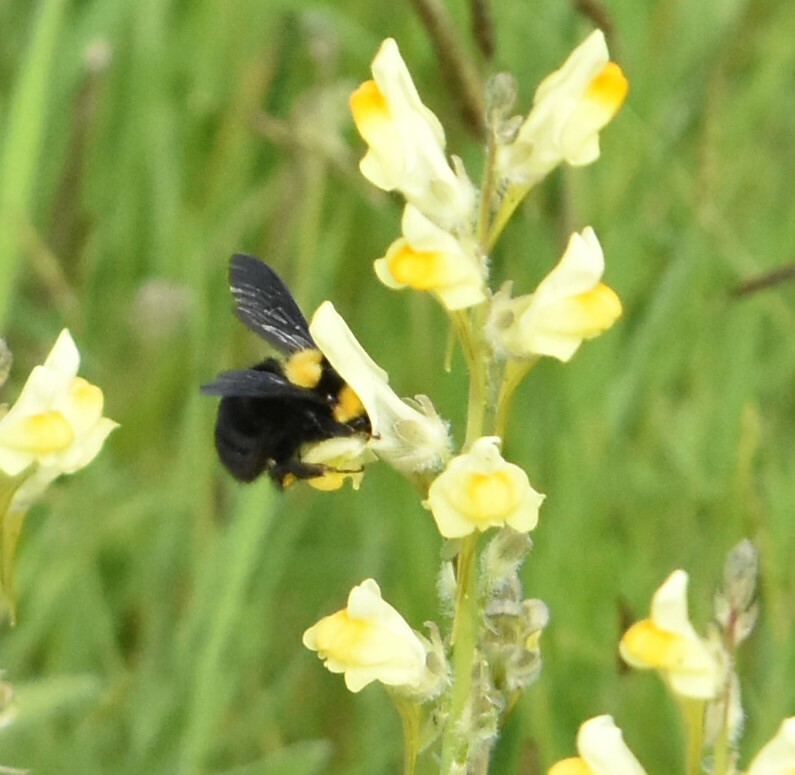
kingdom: Animalia
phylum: Arthropoda
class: Insecta
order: Hymenoptera
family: Apidae
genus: Bombus
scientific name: Bombus argillaceus
